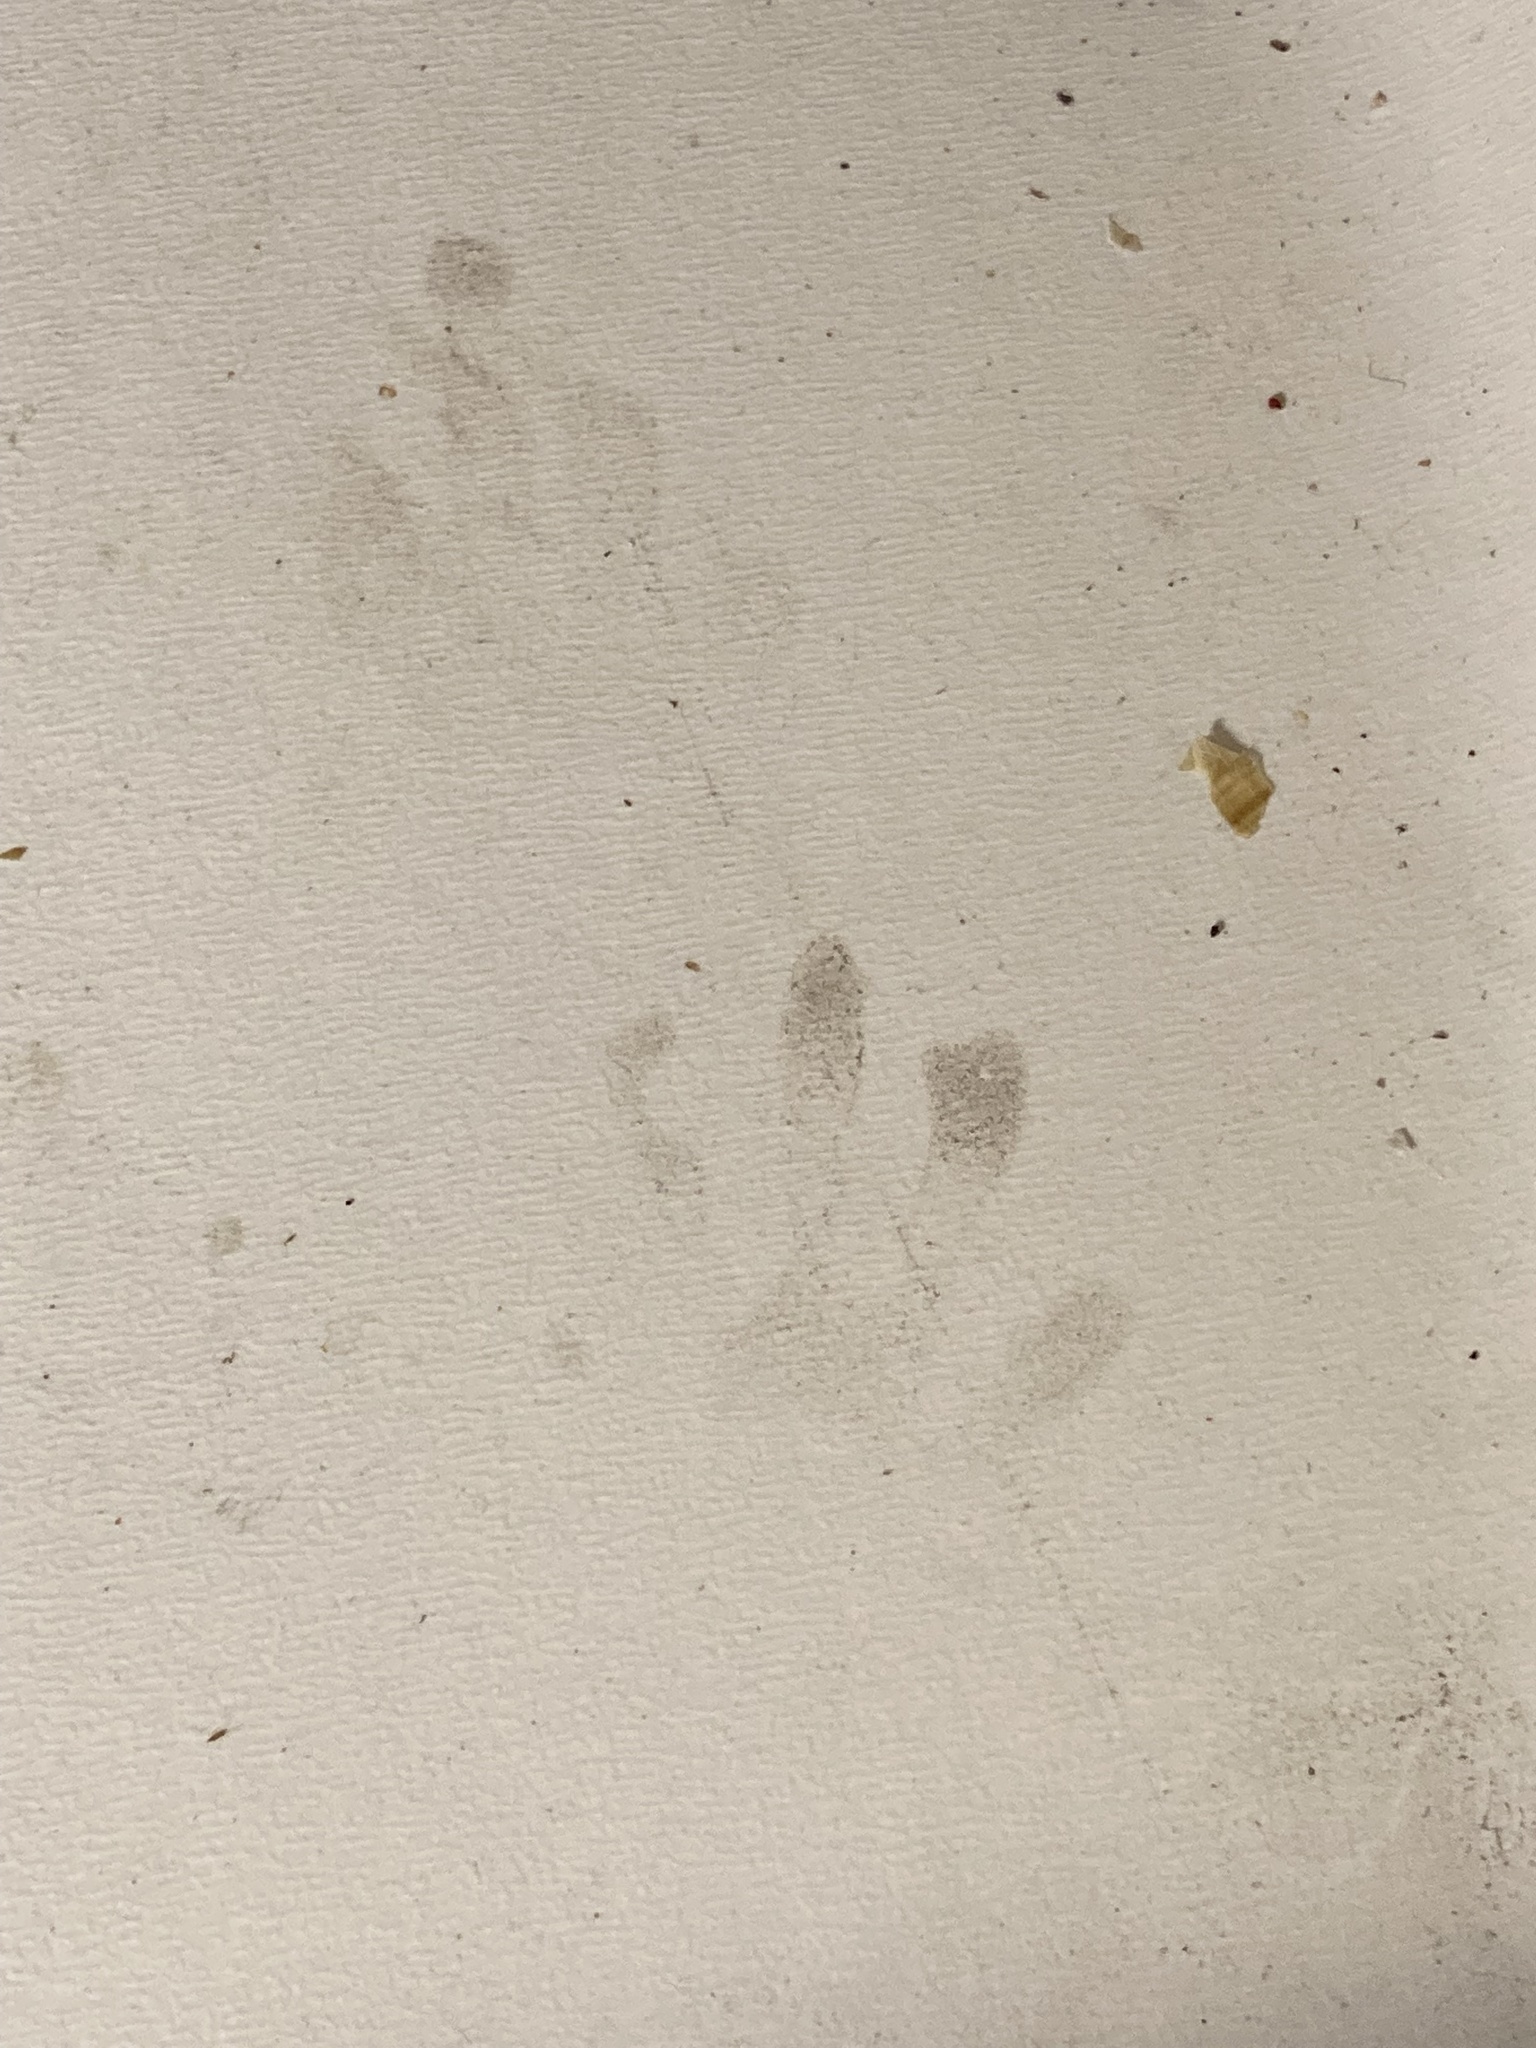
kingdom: Animalia
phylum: Chordata
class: Mammalia
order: Carnivora
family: Procyonidae
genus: Procyon
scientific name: Procyon lotor
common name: Raccoon
